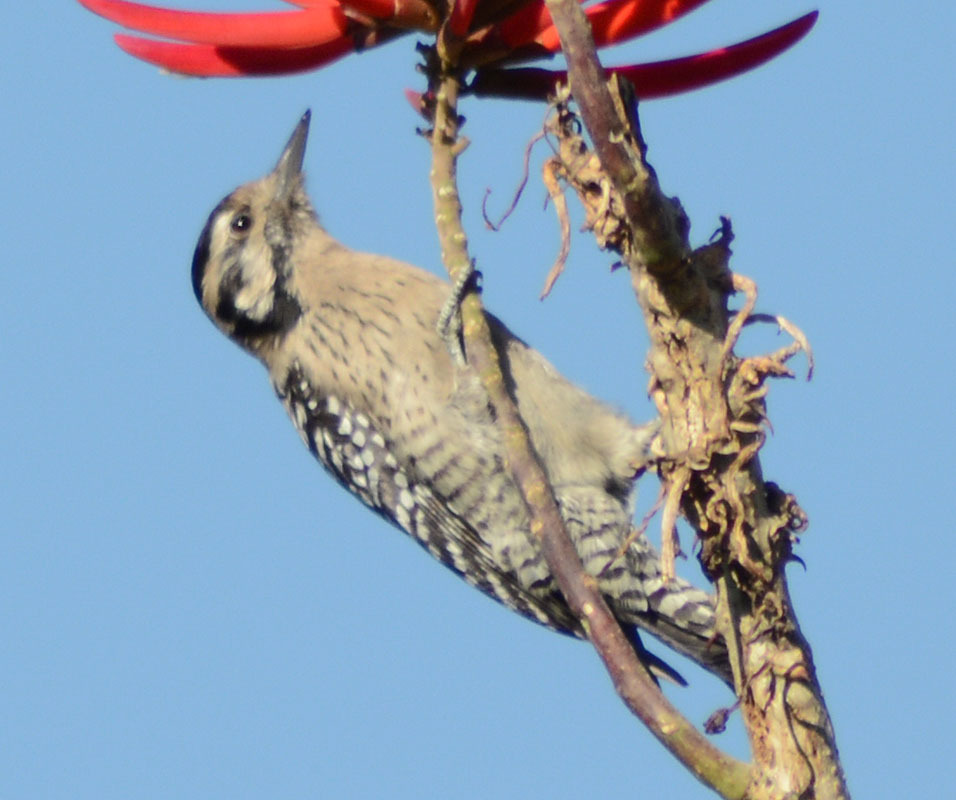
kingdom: Animalia
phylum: Chordata
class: Aves
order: Piciformes
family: Picidae
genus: Dryobates
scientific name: Dryobates scalaris
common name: Ladder-backed woodpecker
